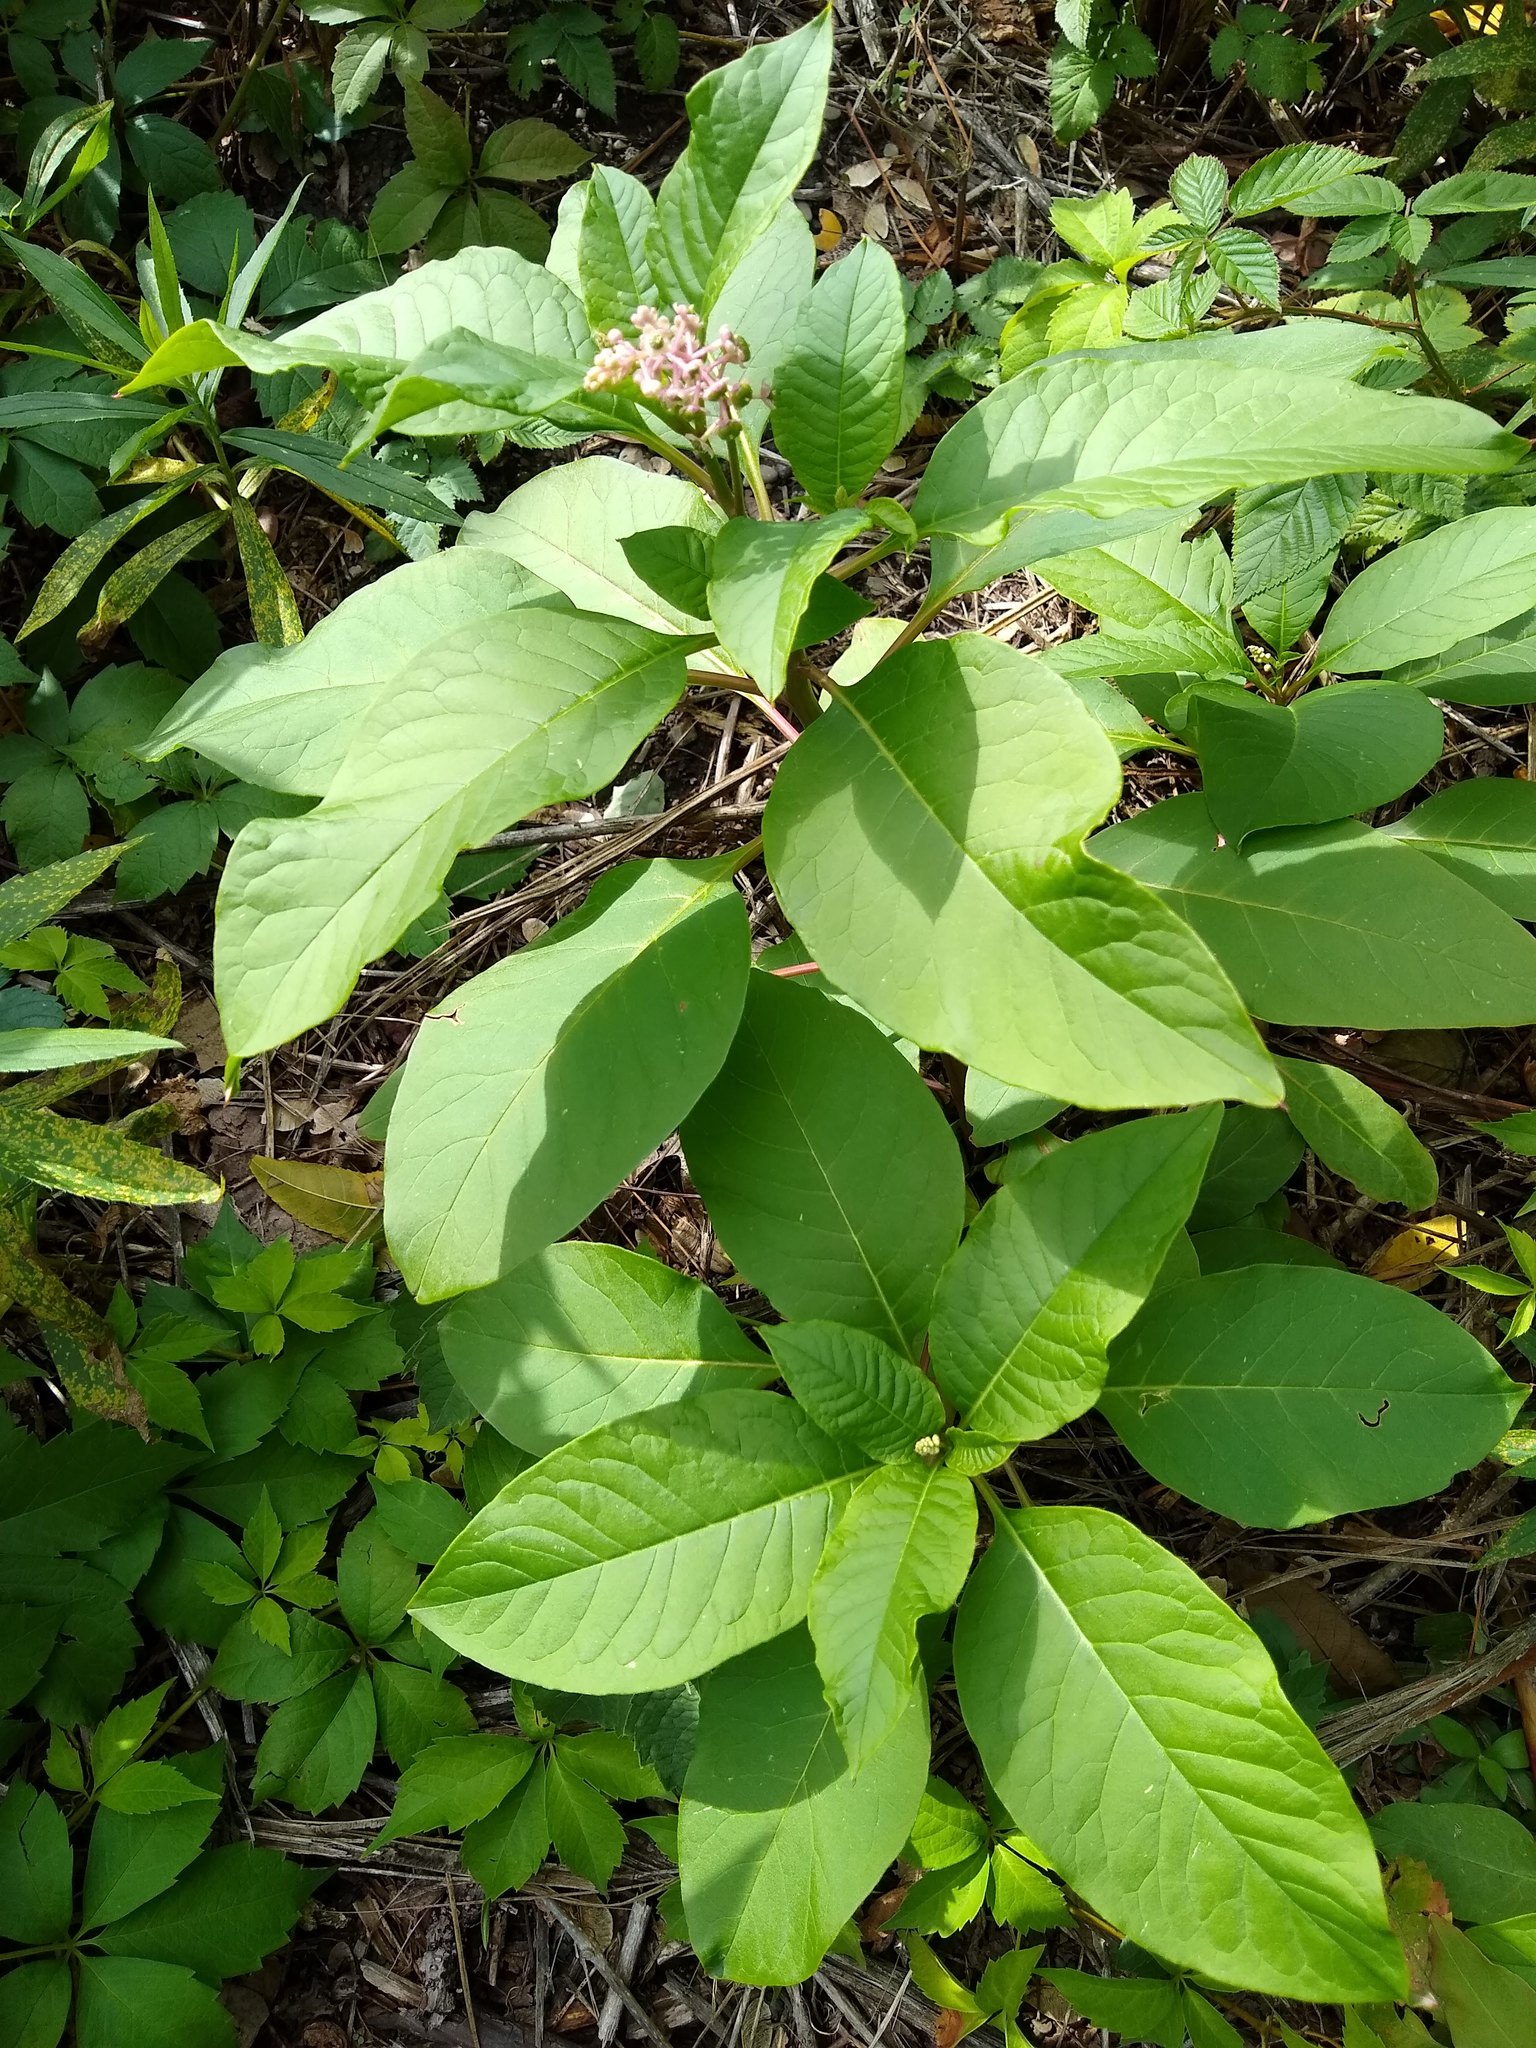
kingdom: Plantae
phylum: Tracheophyta
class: Magnoliopsida
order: Caryophyllales
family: Phytolaccaceae
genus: Phytolacca
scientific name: Phytolacca americana
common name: American pokeweed
